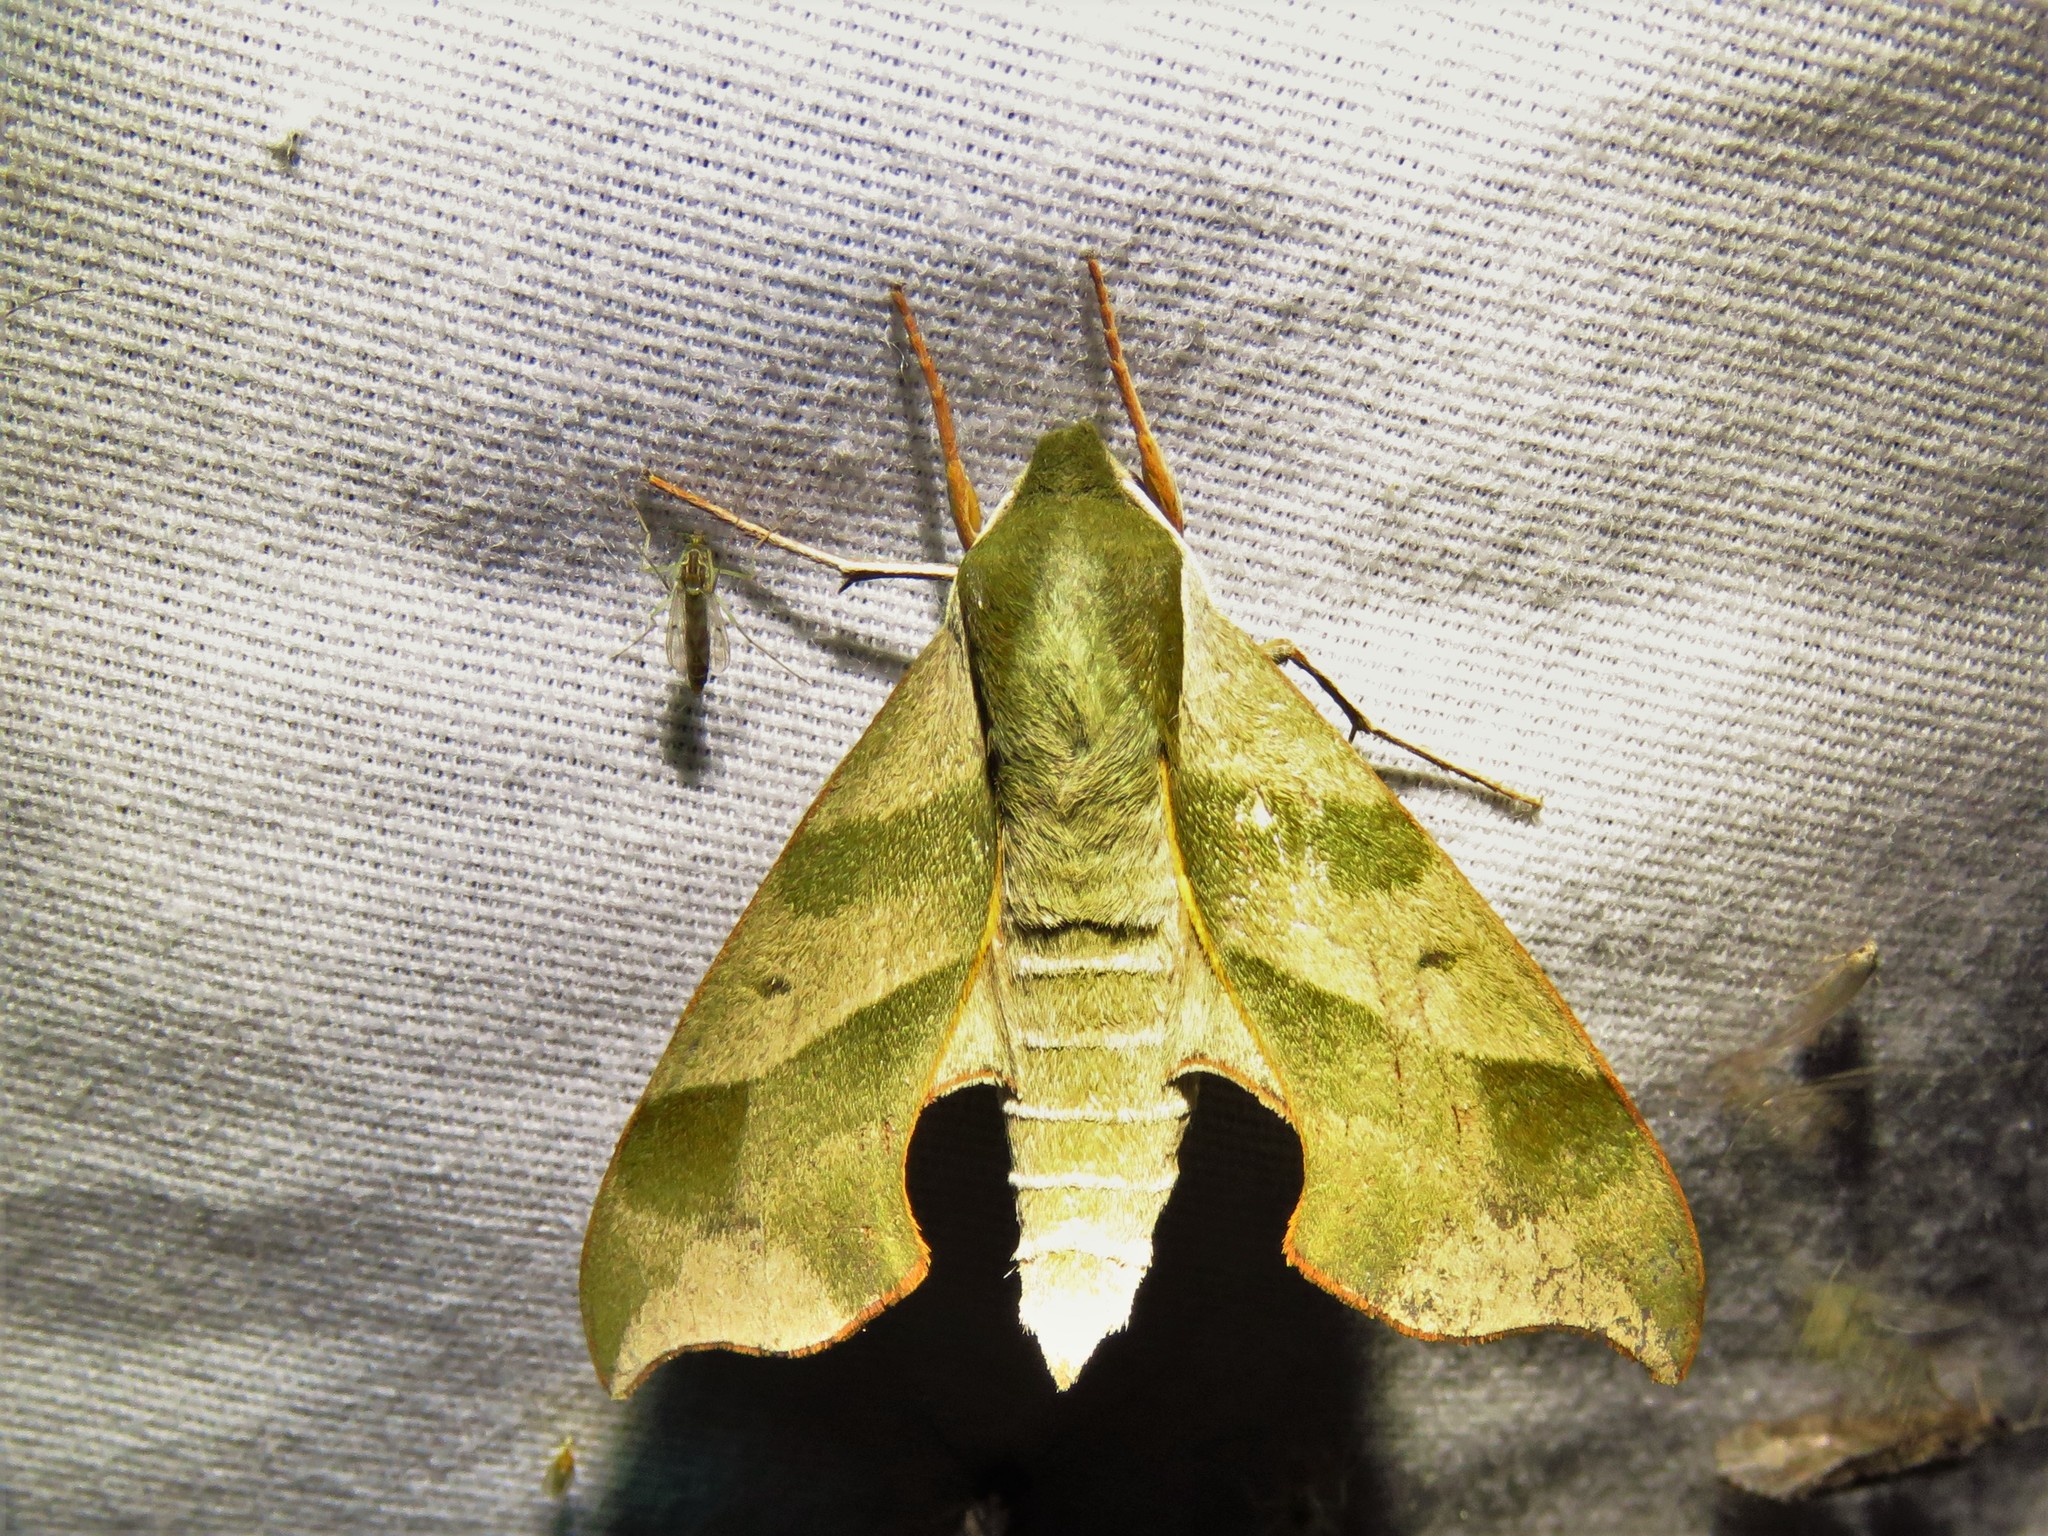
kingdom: Animalia
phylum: Arthropoda
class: Insecta
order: Lepidoptera
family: Sphingidae
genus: Darapsa
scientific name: Darapsa myron
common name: Hog sphinx
